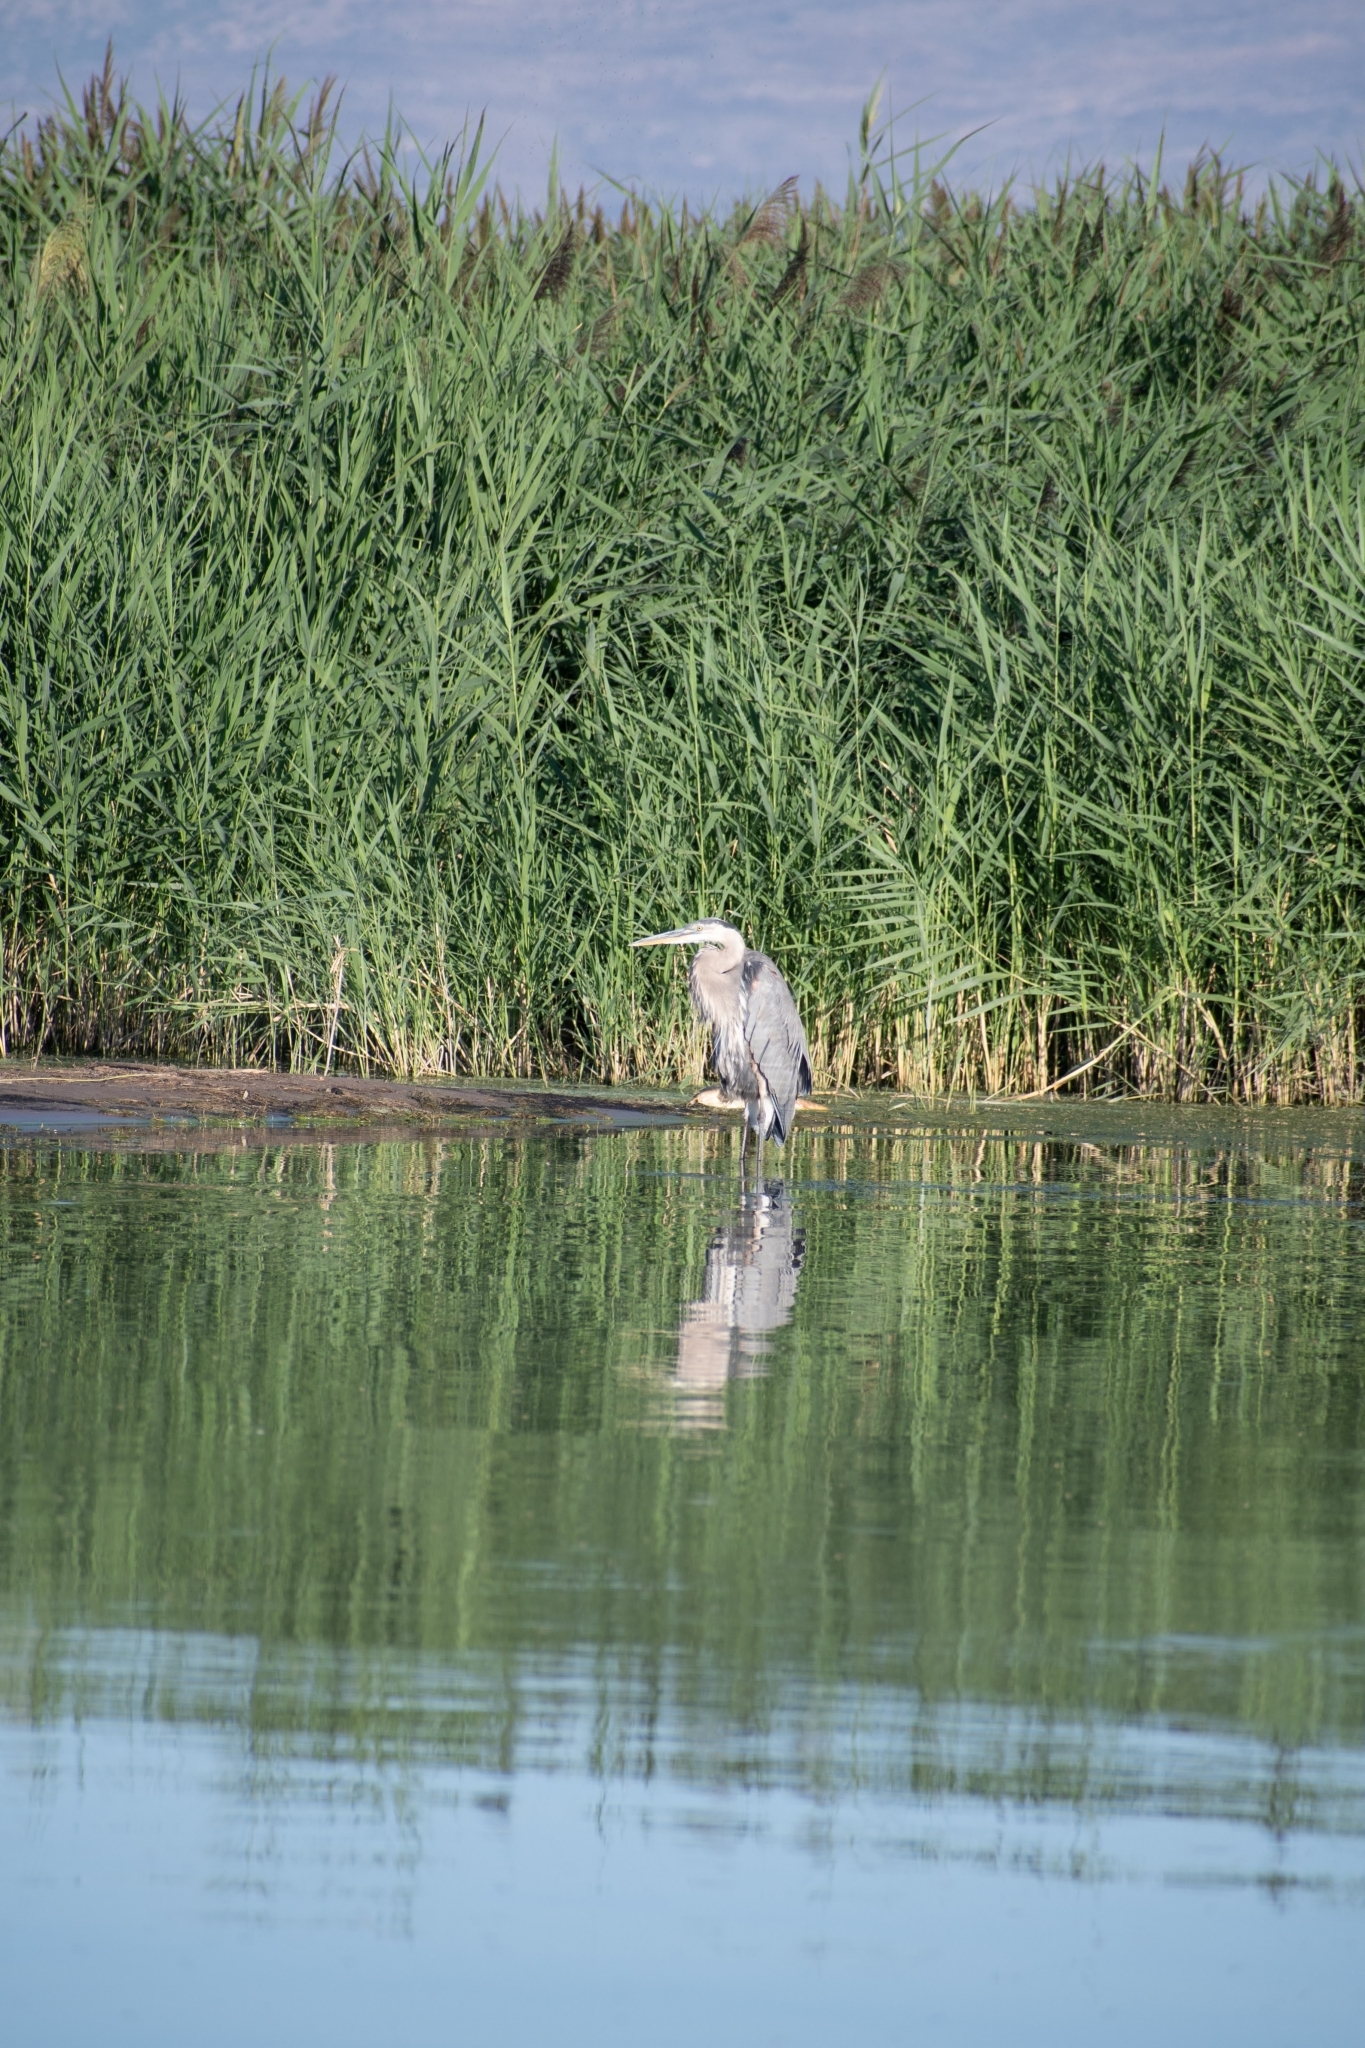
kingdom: Animalia
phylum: Chordata
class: Aves
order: Pelecaniformes
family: Ardeidae
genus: Ardea
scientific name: Ardea herodias
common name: Great blue heron
